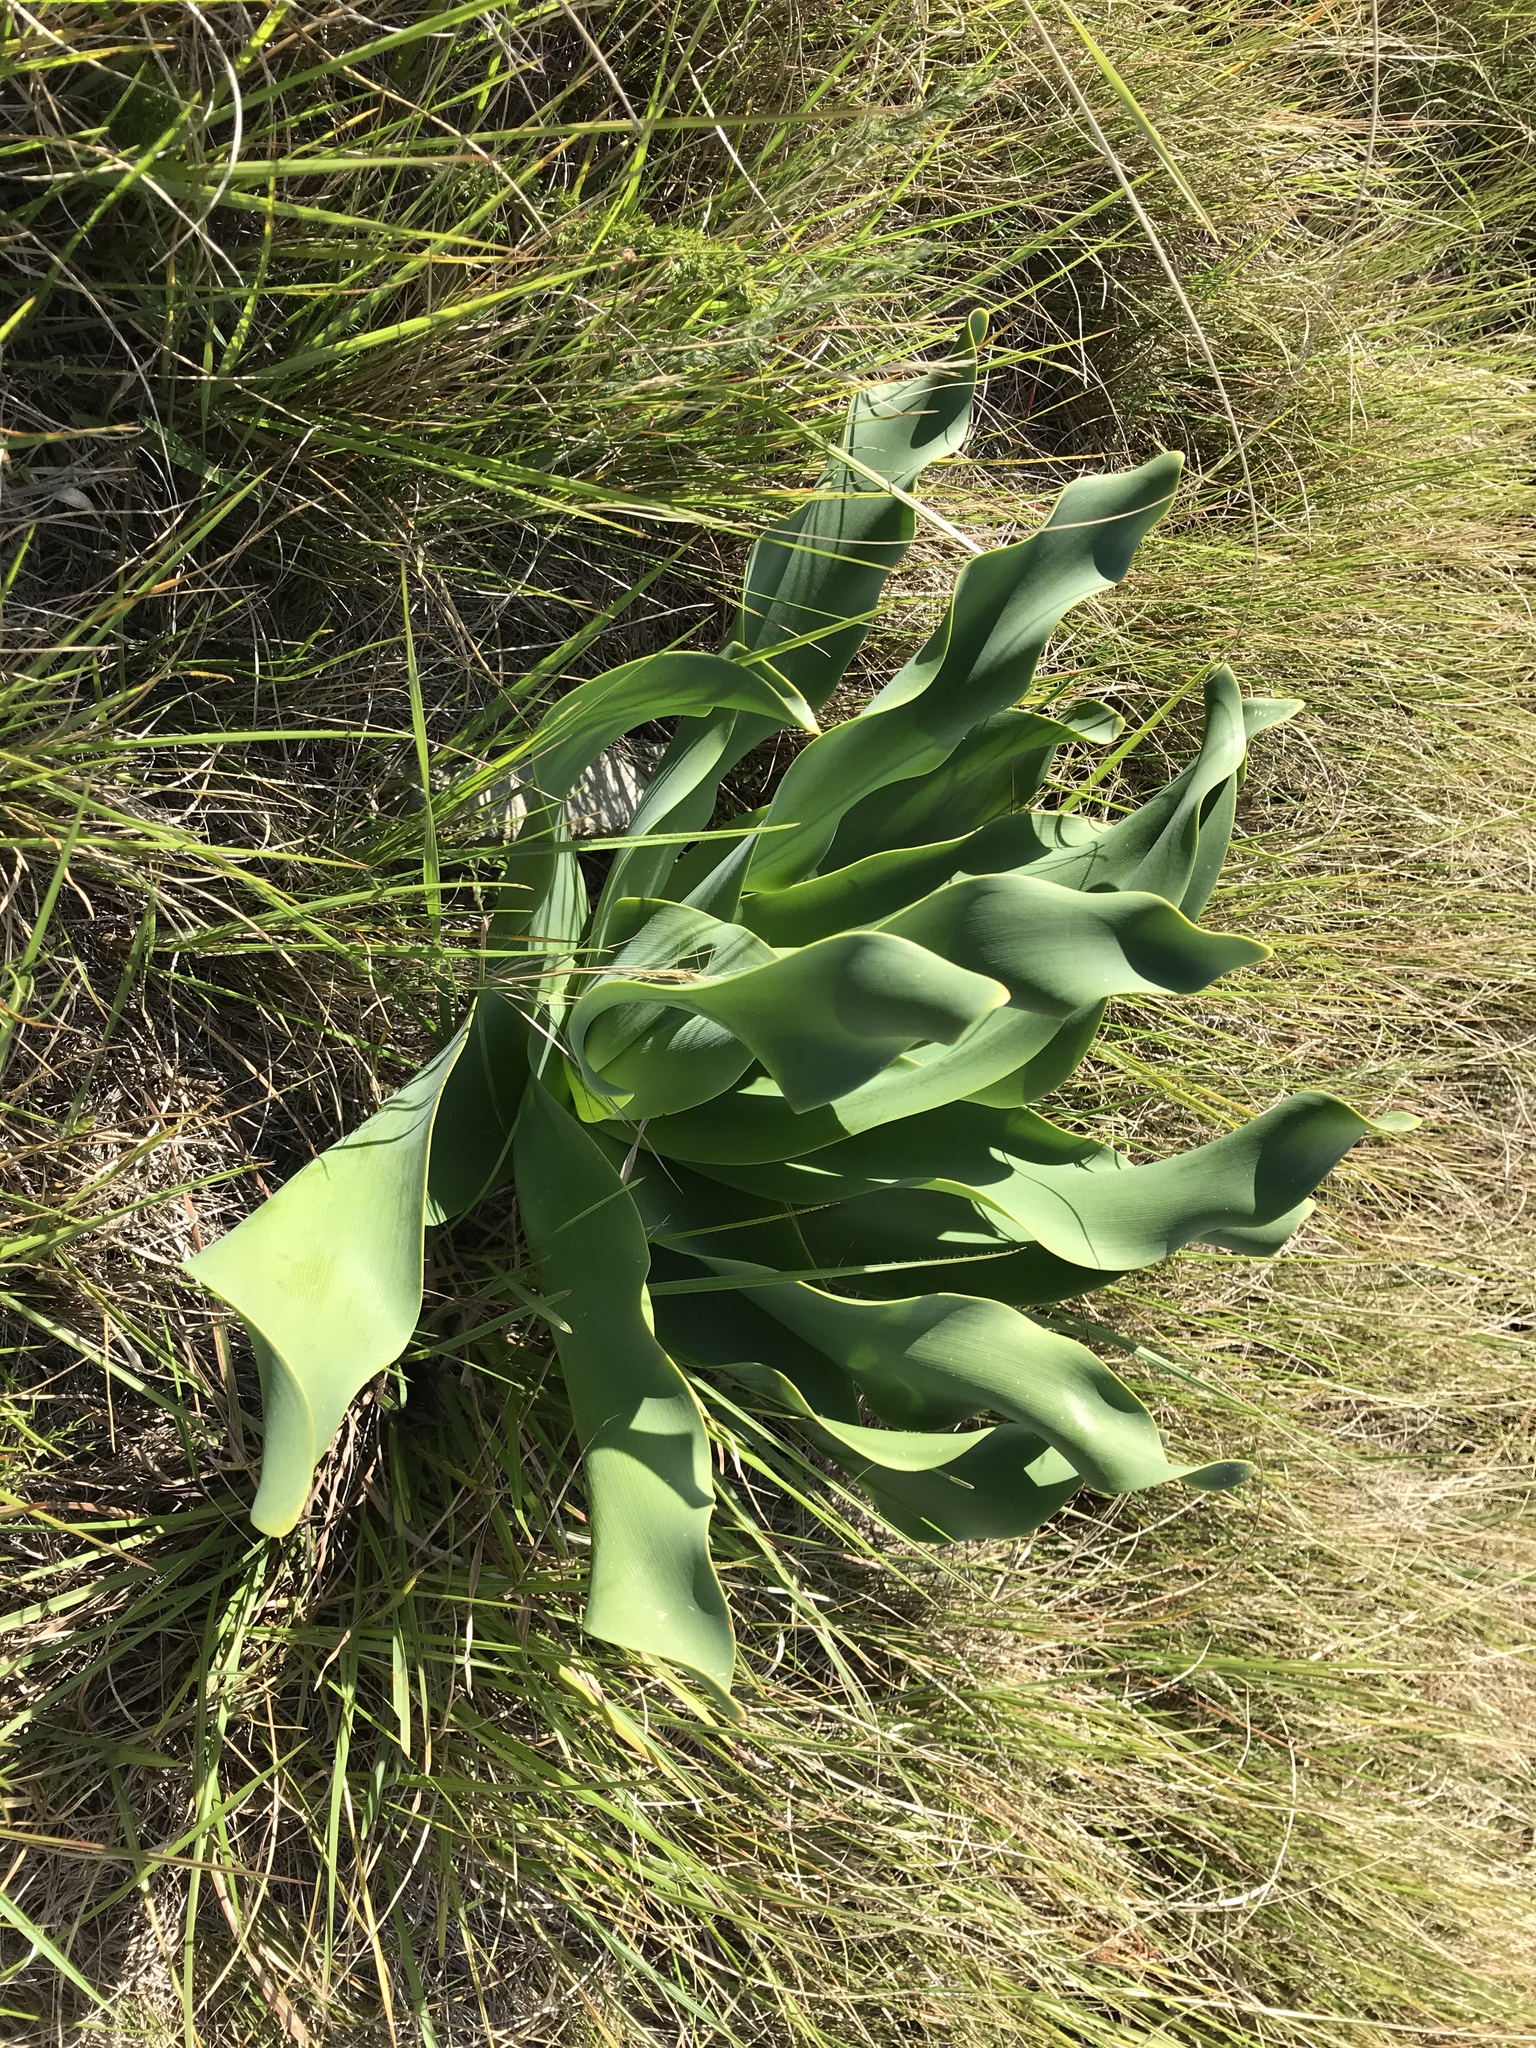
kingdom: Plantae
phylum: Tracheophyta
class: Liliopsida
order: Asparagales
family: Amaryllidaceae
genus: Brunsvigia
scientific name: Brunsvigia litoralis
